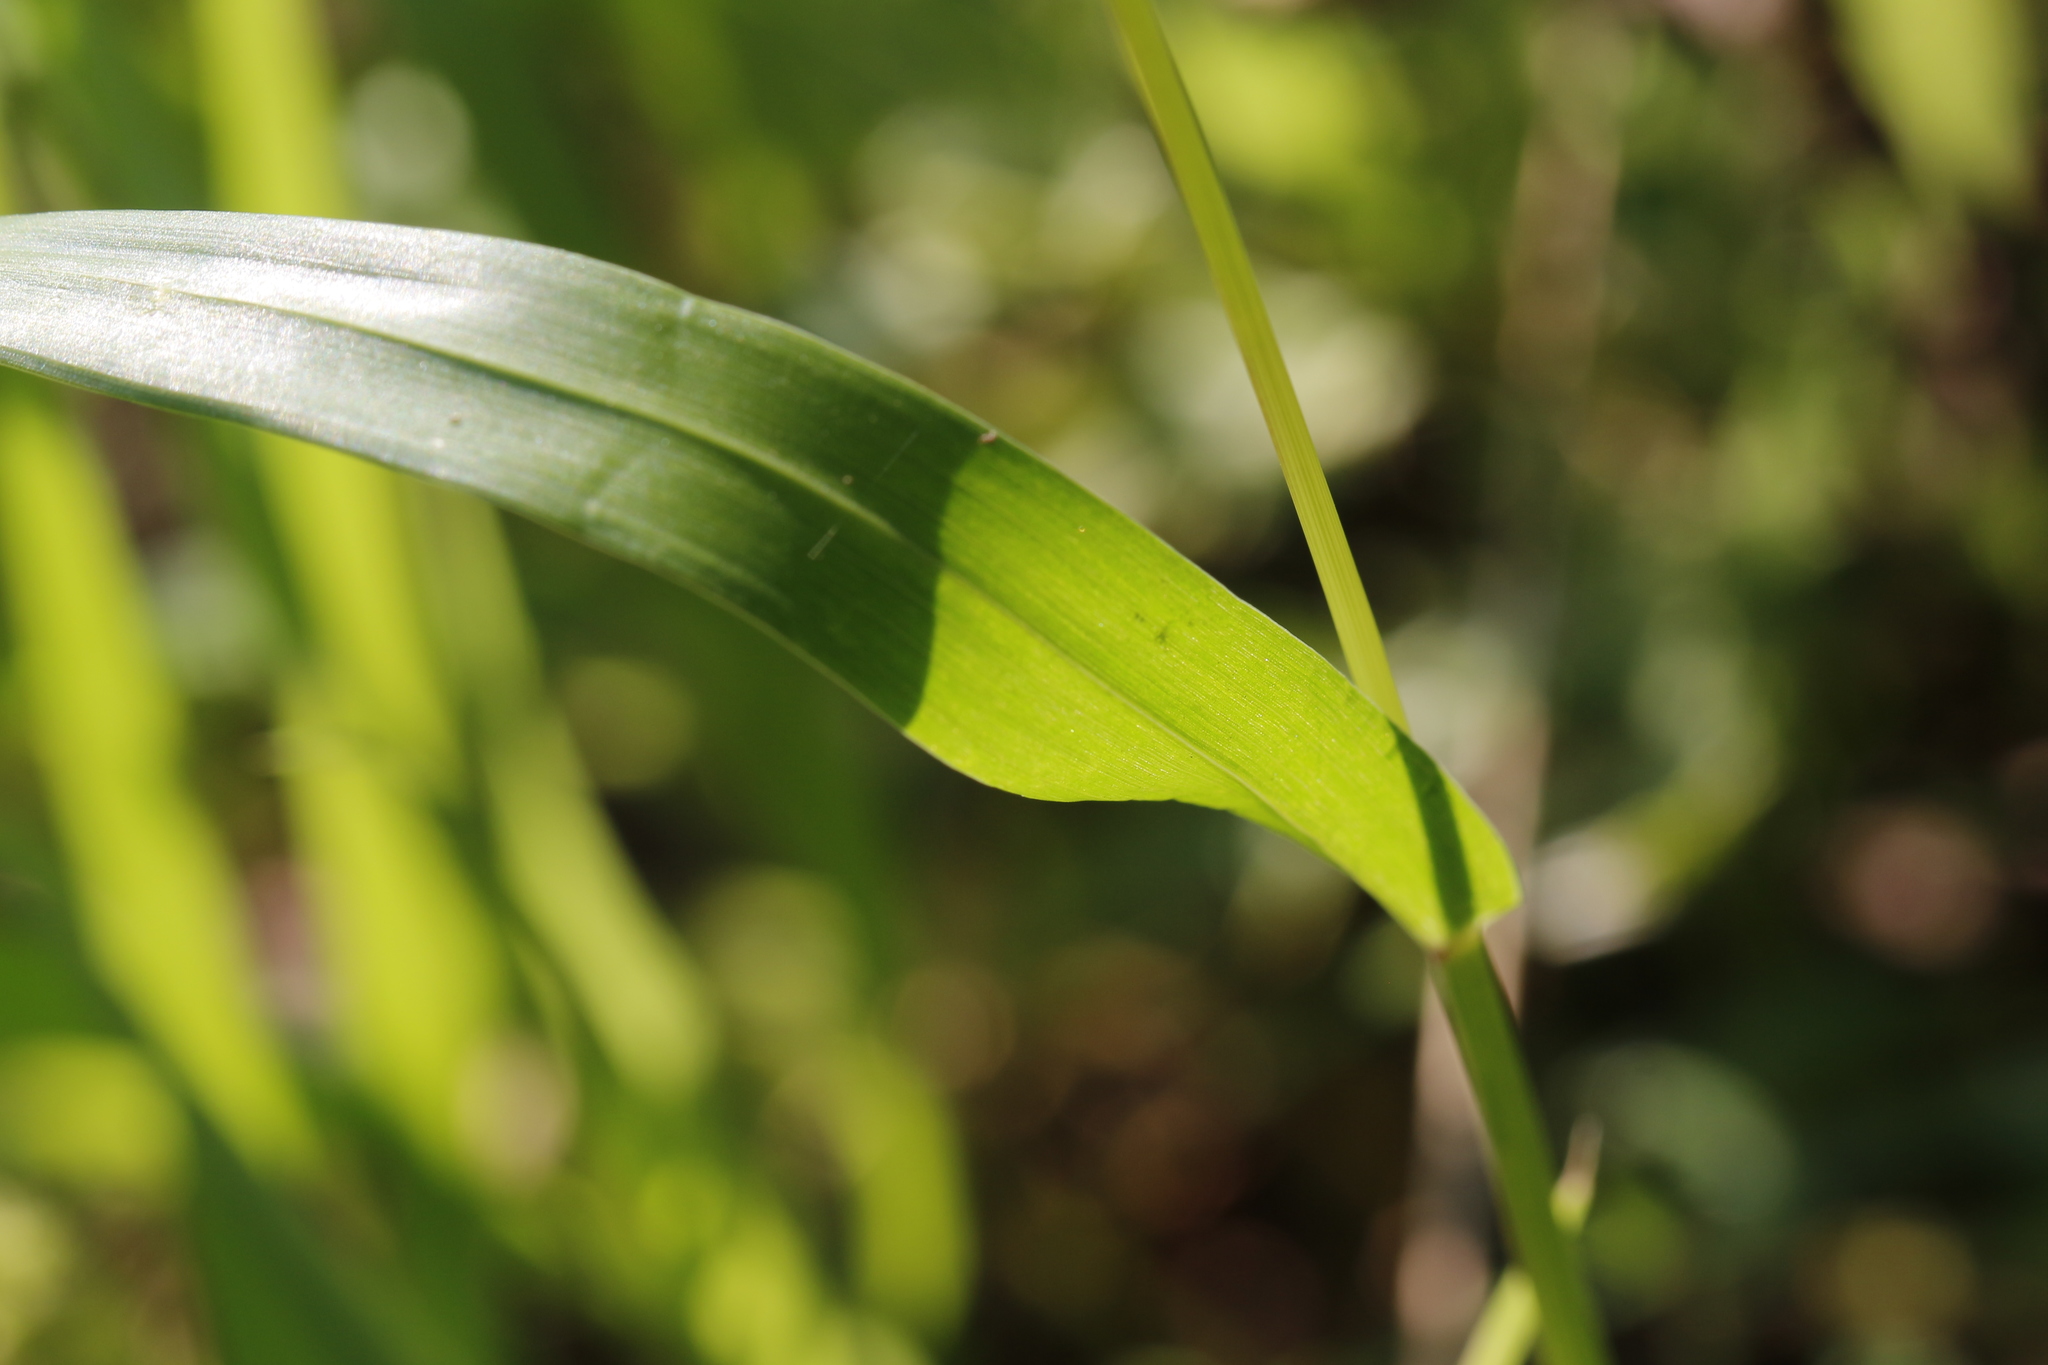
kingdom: Plantae
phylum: Tracheophyta
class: Liliopsida
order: Poales
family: Poaceae
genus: Setaria
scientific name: Setaria pumila
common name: Yellow bristle-grass
